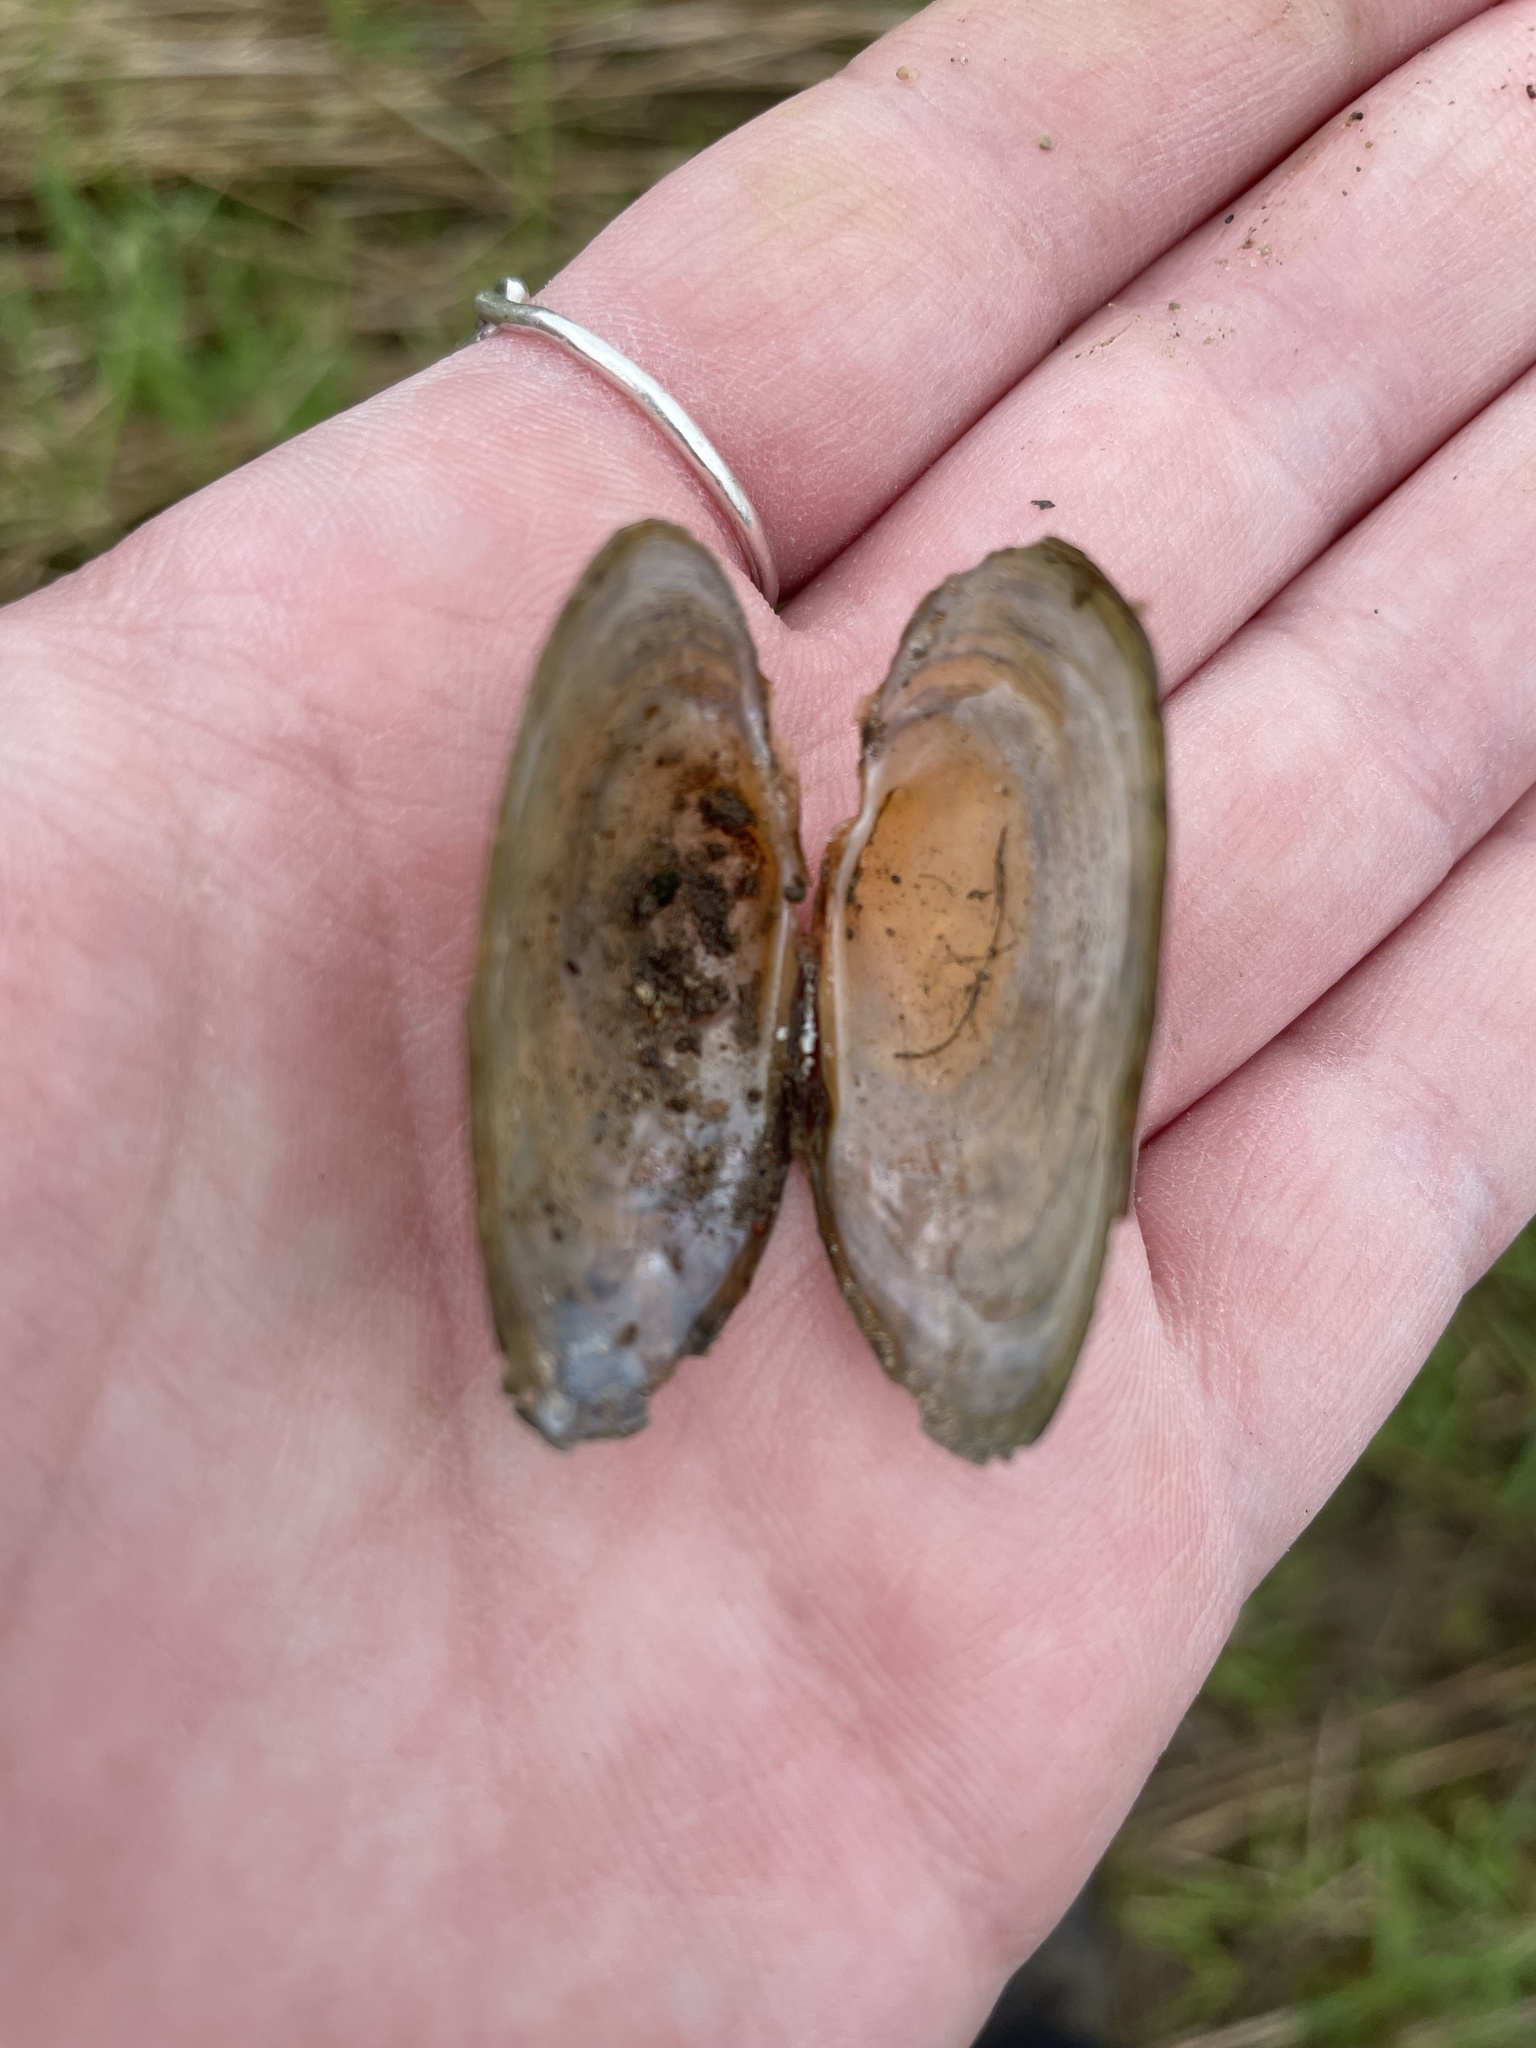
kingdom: Animalia
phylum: Mollusca
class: Bivalvia
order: Unionida
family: Unionidae
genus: Strophitus
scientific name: Strophitus undulatus
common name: Creeper
